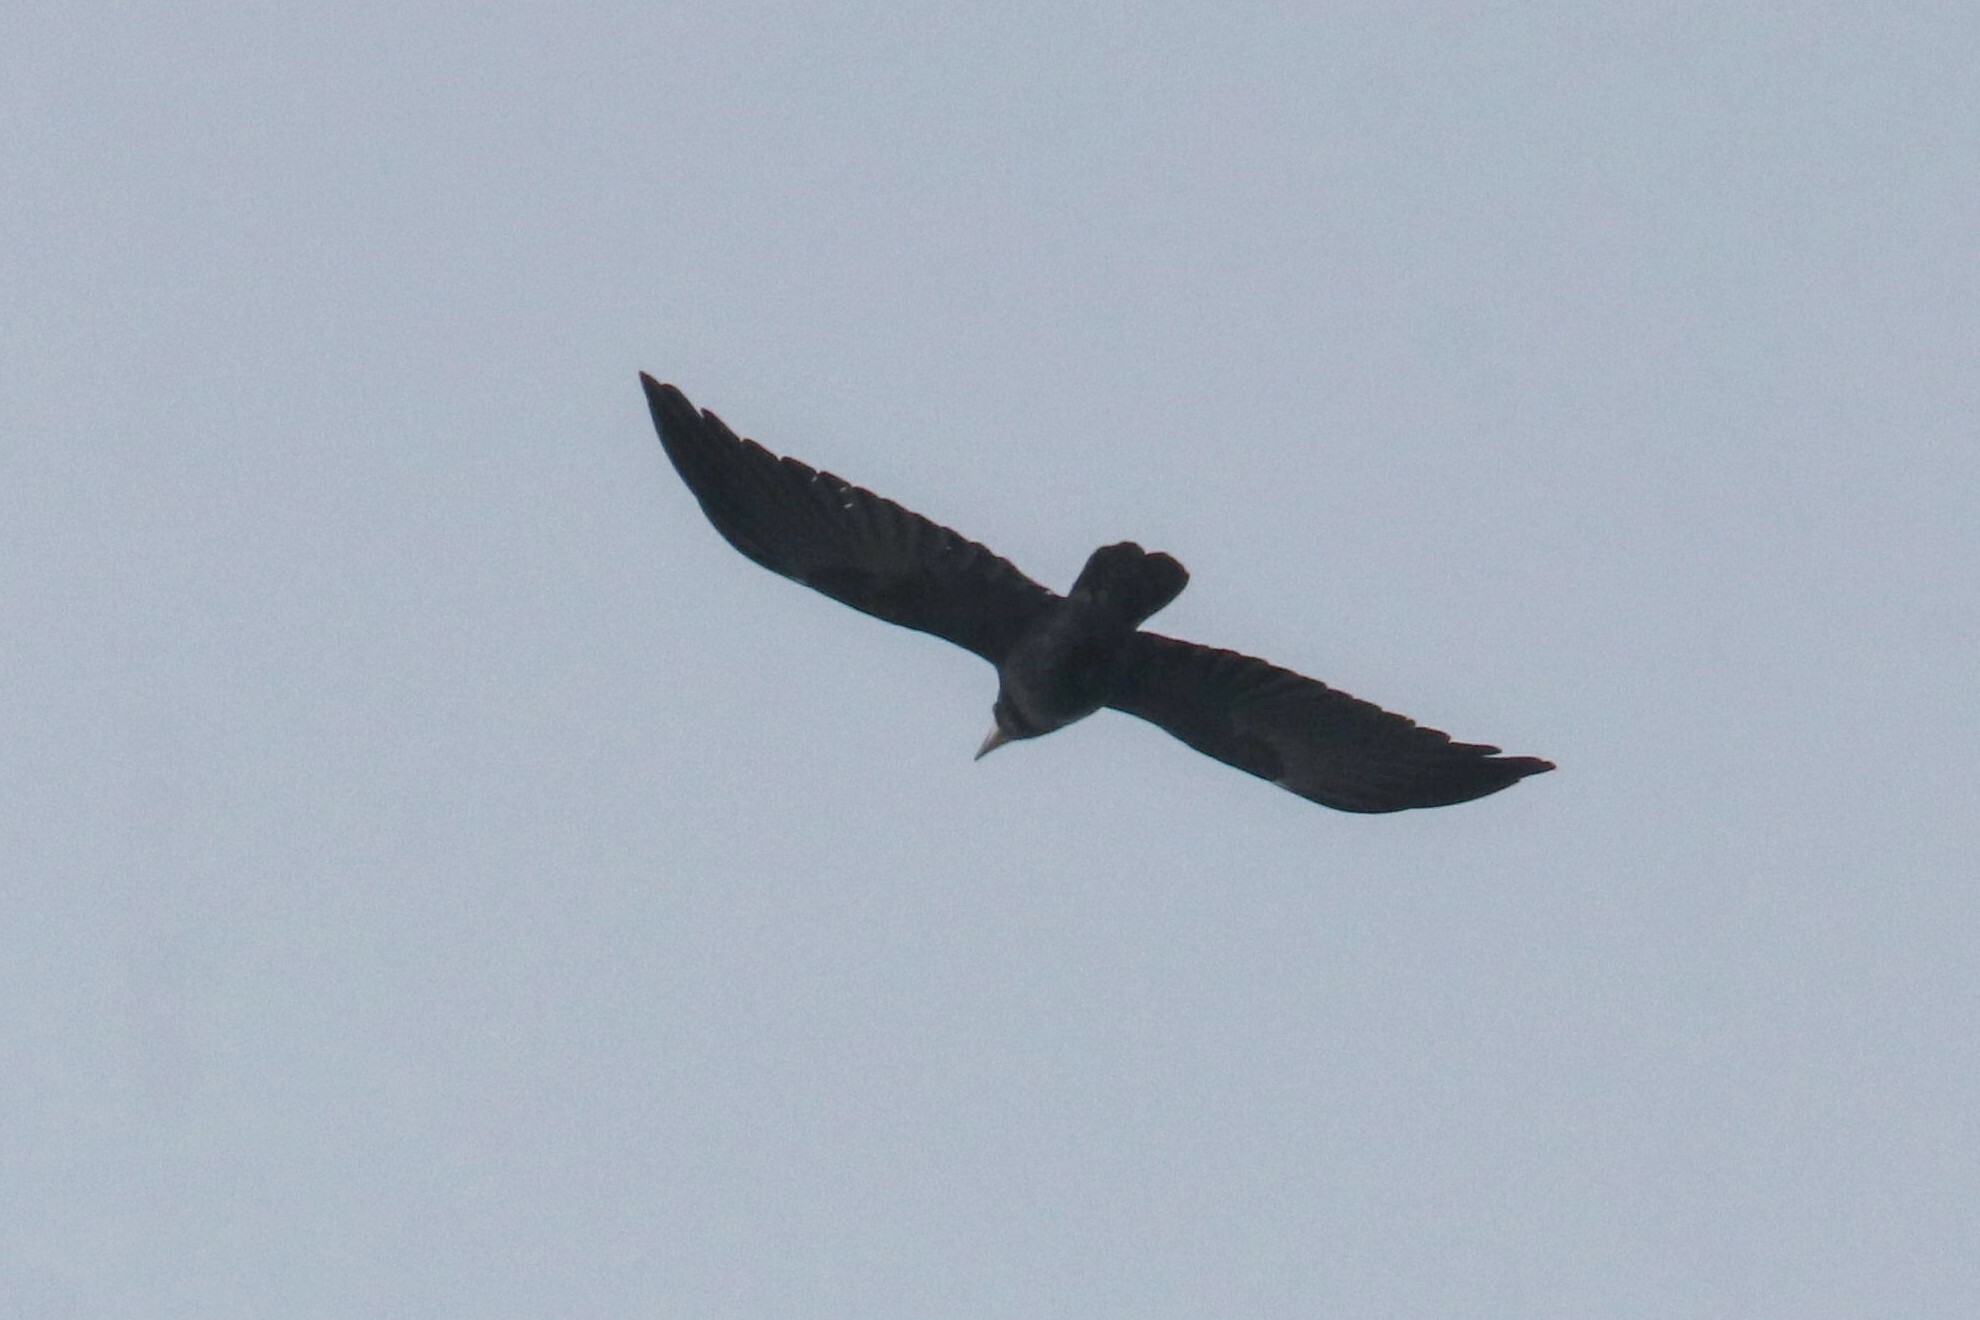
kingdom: Animalia
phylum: Chordata
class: Aves
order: Passeriformes
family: Corvidae
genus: Corvus
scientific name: Corvus frugilegus
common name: Rook
